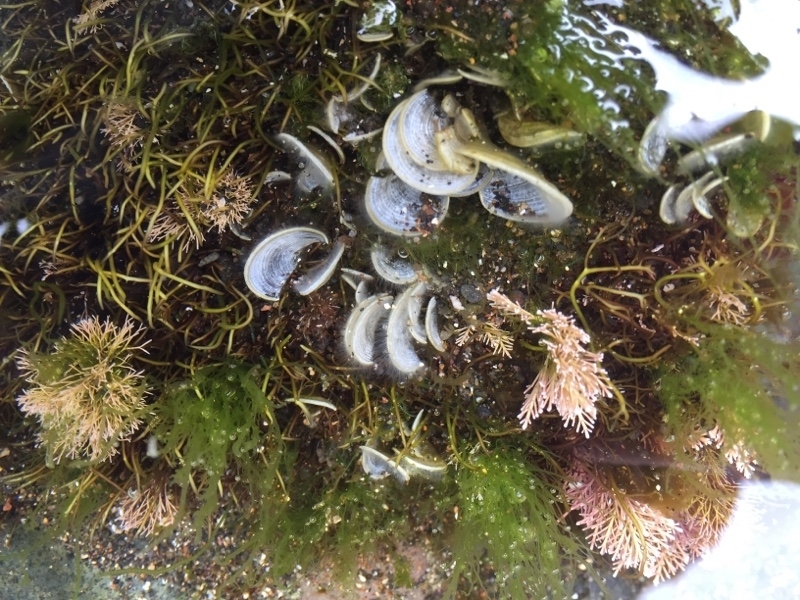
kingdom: Chromista
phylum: Ochrophyta
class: Phaeophyceae
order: Dictyotales
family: Dictyotaceae
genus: Padina
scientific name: Padina pavonica
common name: Turkey feather alga
